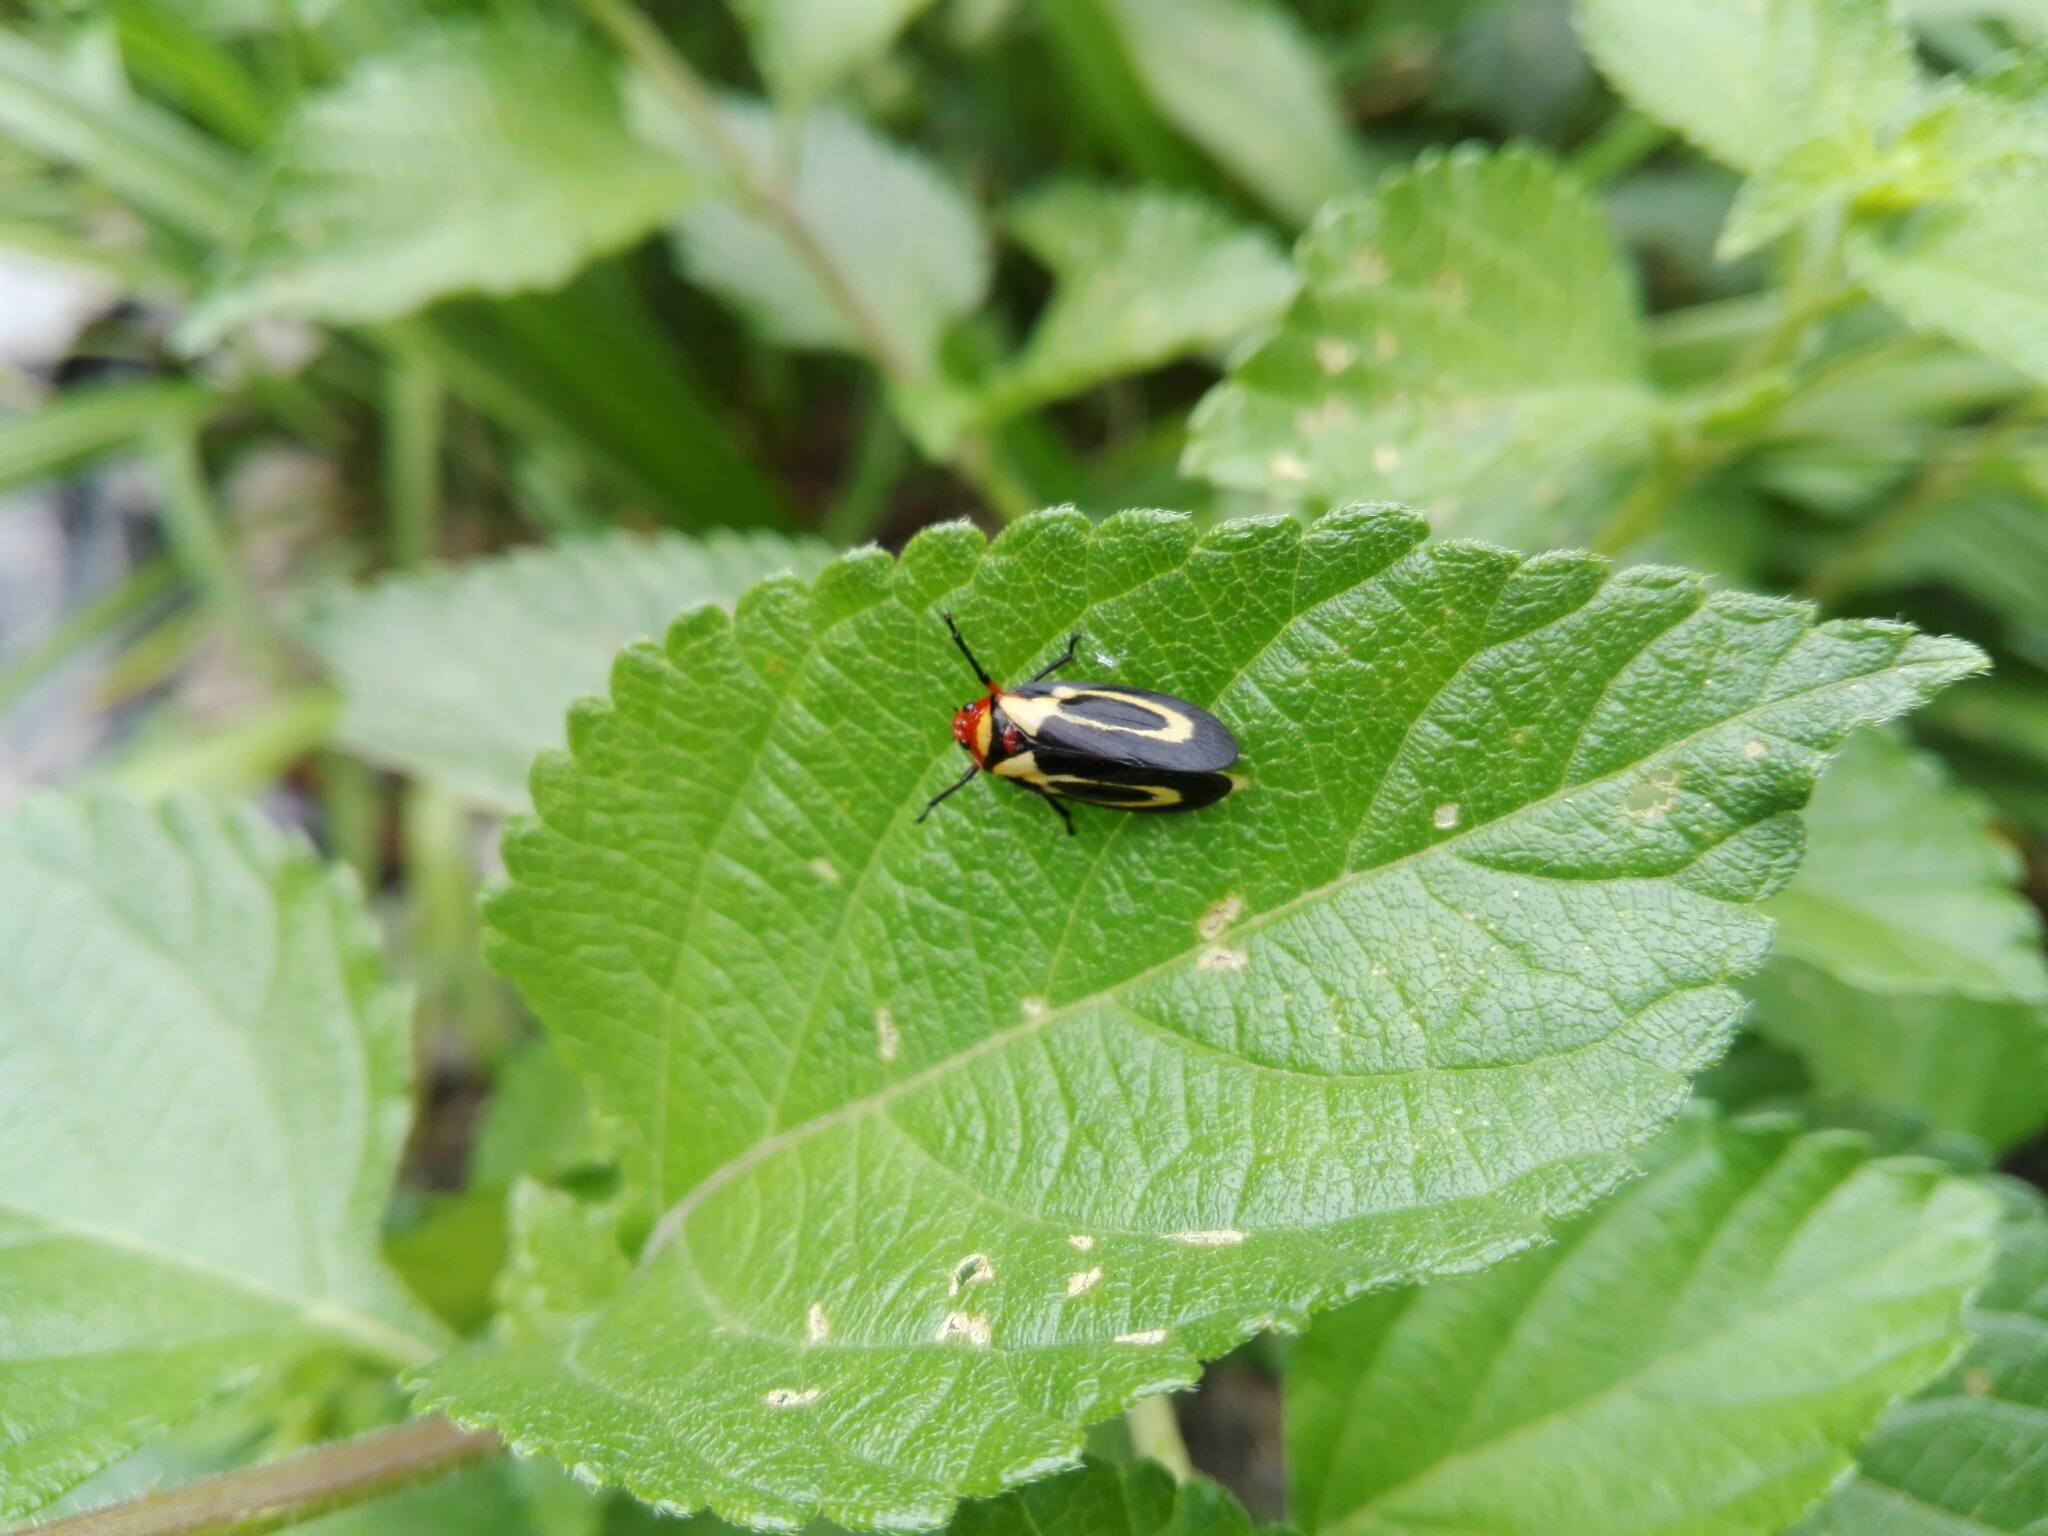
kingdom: Animalia
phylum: Arthropoda
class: Insecta
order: Hemiptera
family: Cercopidae
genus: Ocoaxo
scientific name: Ocoaxo
